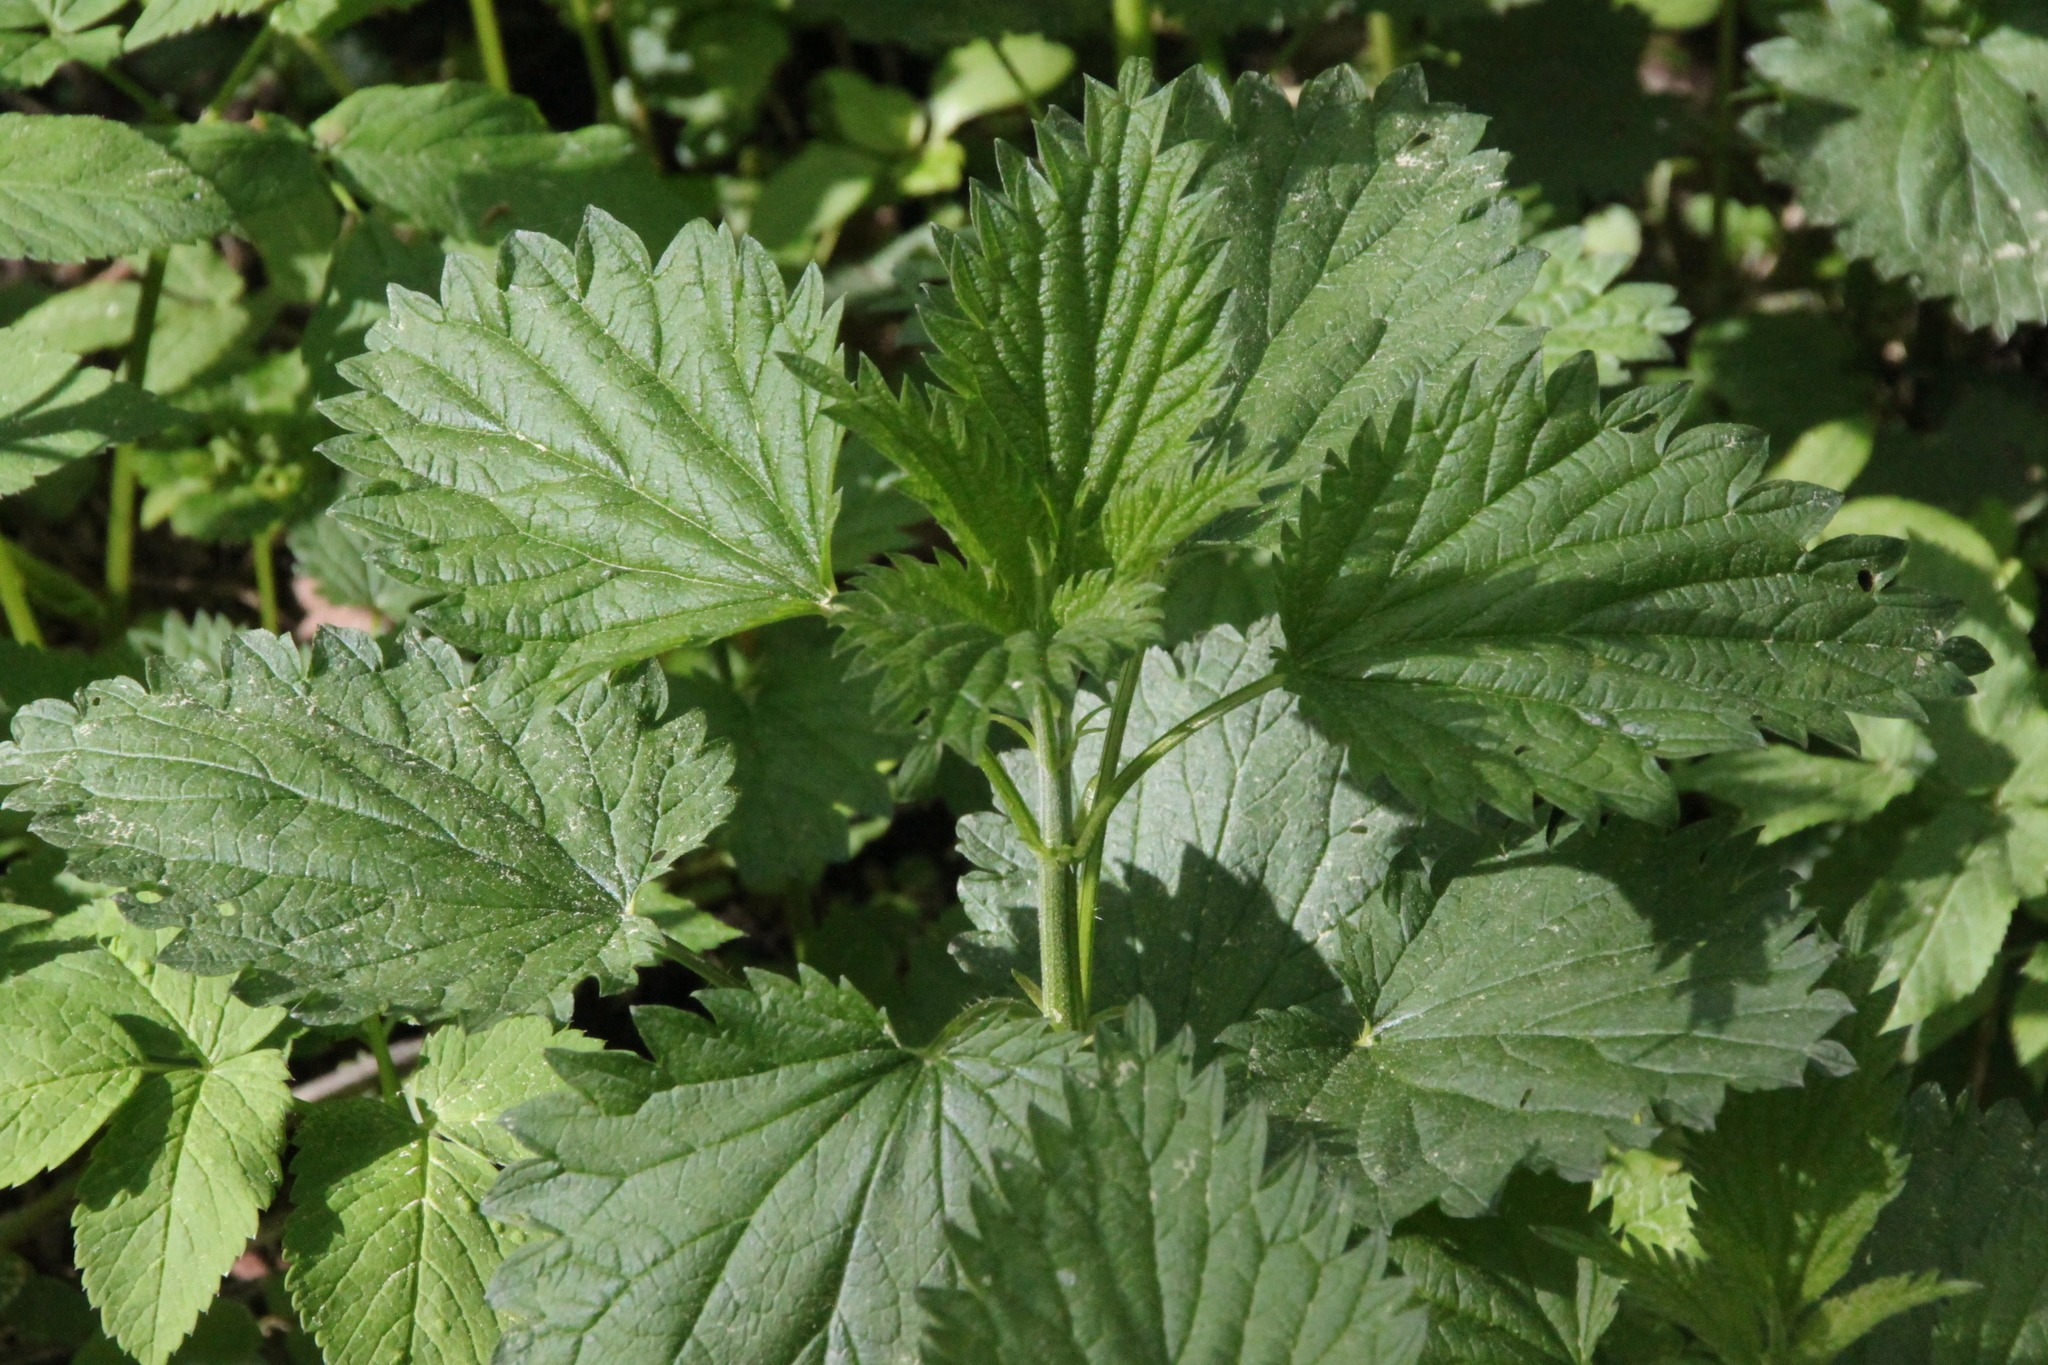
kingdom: Plantae
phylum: Tracheophyta
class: Magnoliopsida
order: Rosales
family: Urticaceae
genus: Urtica
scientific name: Urtica dioica
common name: Common nettle
